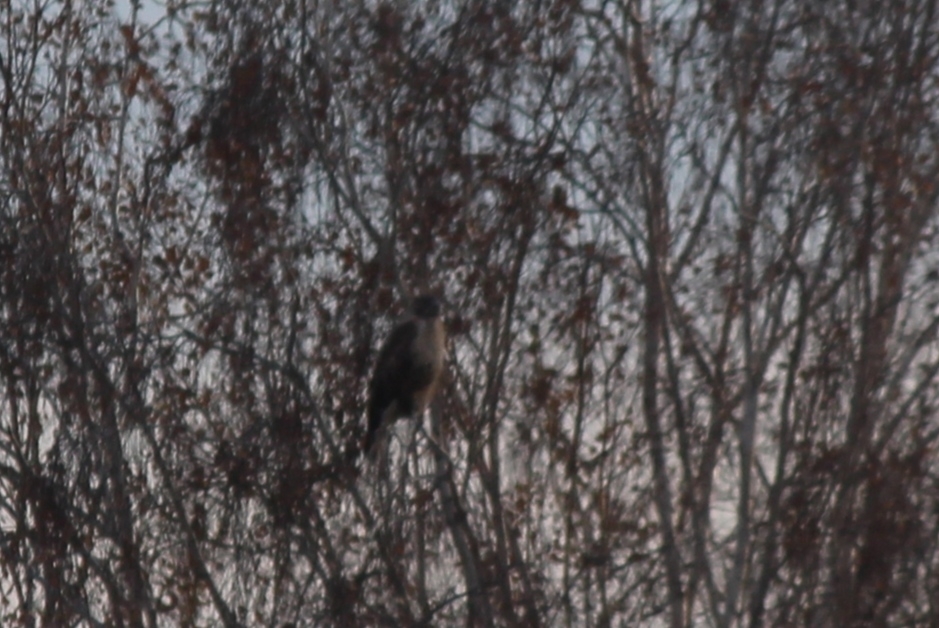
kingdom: Animalia
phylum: Chordata
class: Aves
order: Accipitriformes
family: Accipitridae
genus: Buteo
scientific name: Buteo hemilasius
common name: Upland buzzard
